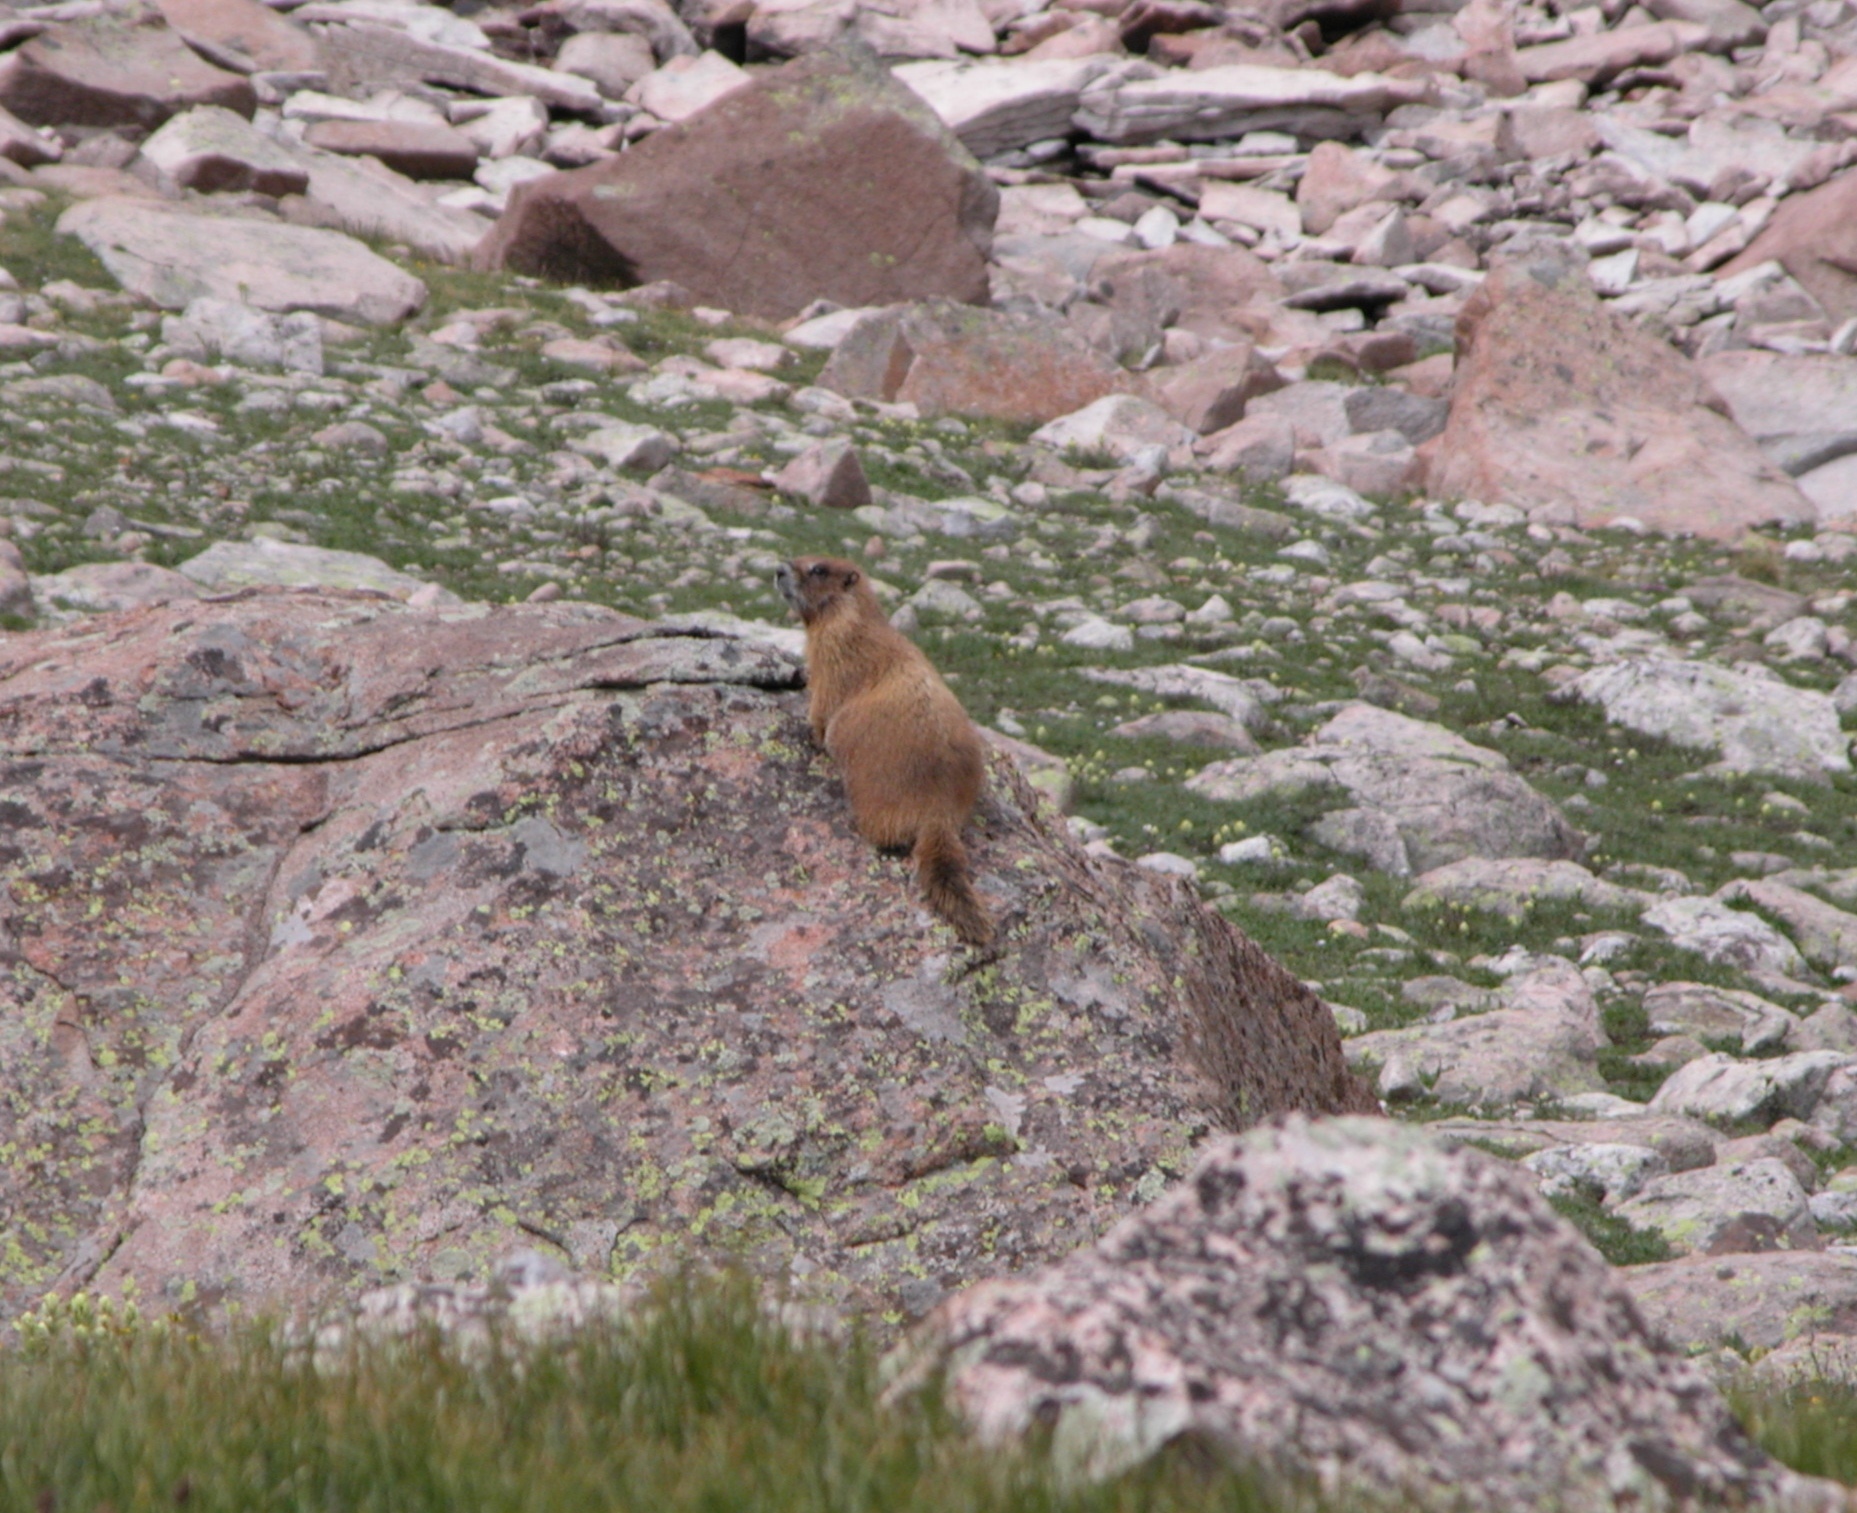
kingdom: Animalia
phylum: Chordata
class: Mammalia
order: Rodentia
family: Sciuridae
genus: Marmota
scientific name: Marmota flaviventris
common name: Yellow-bellied marmot
